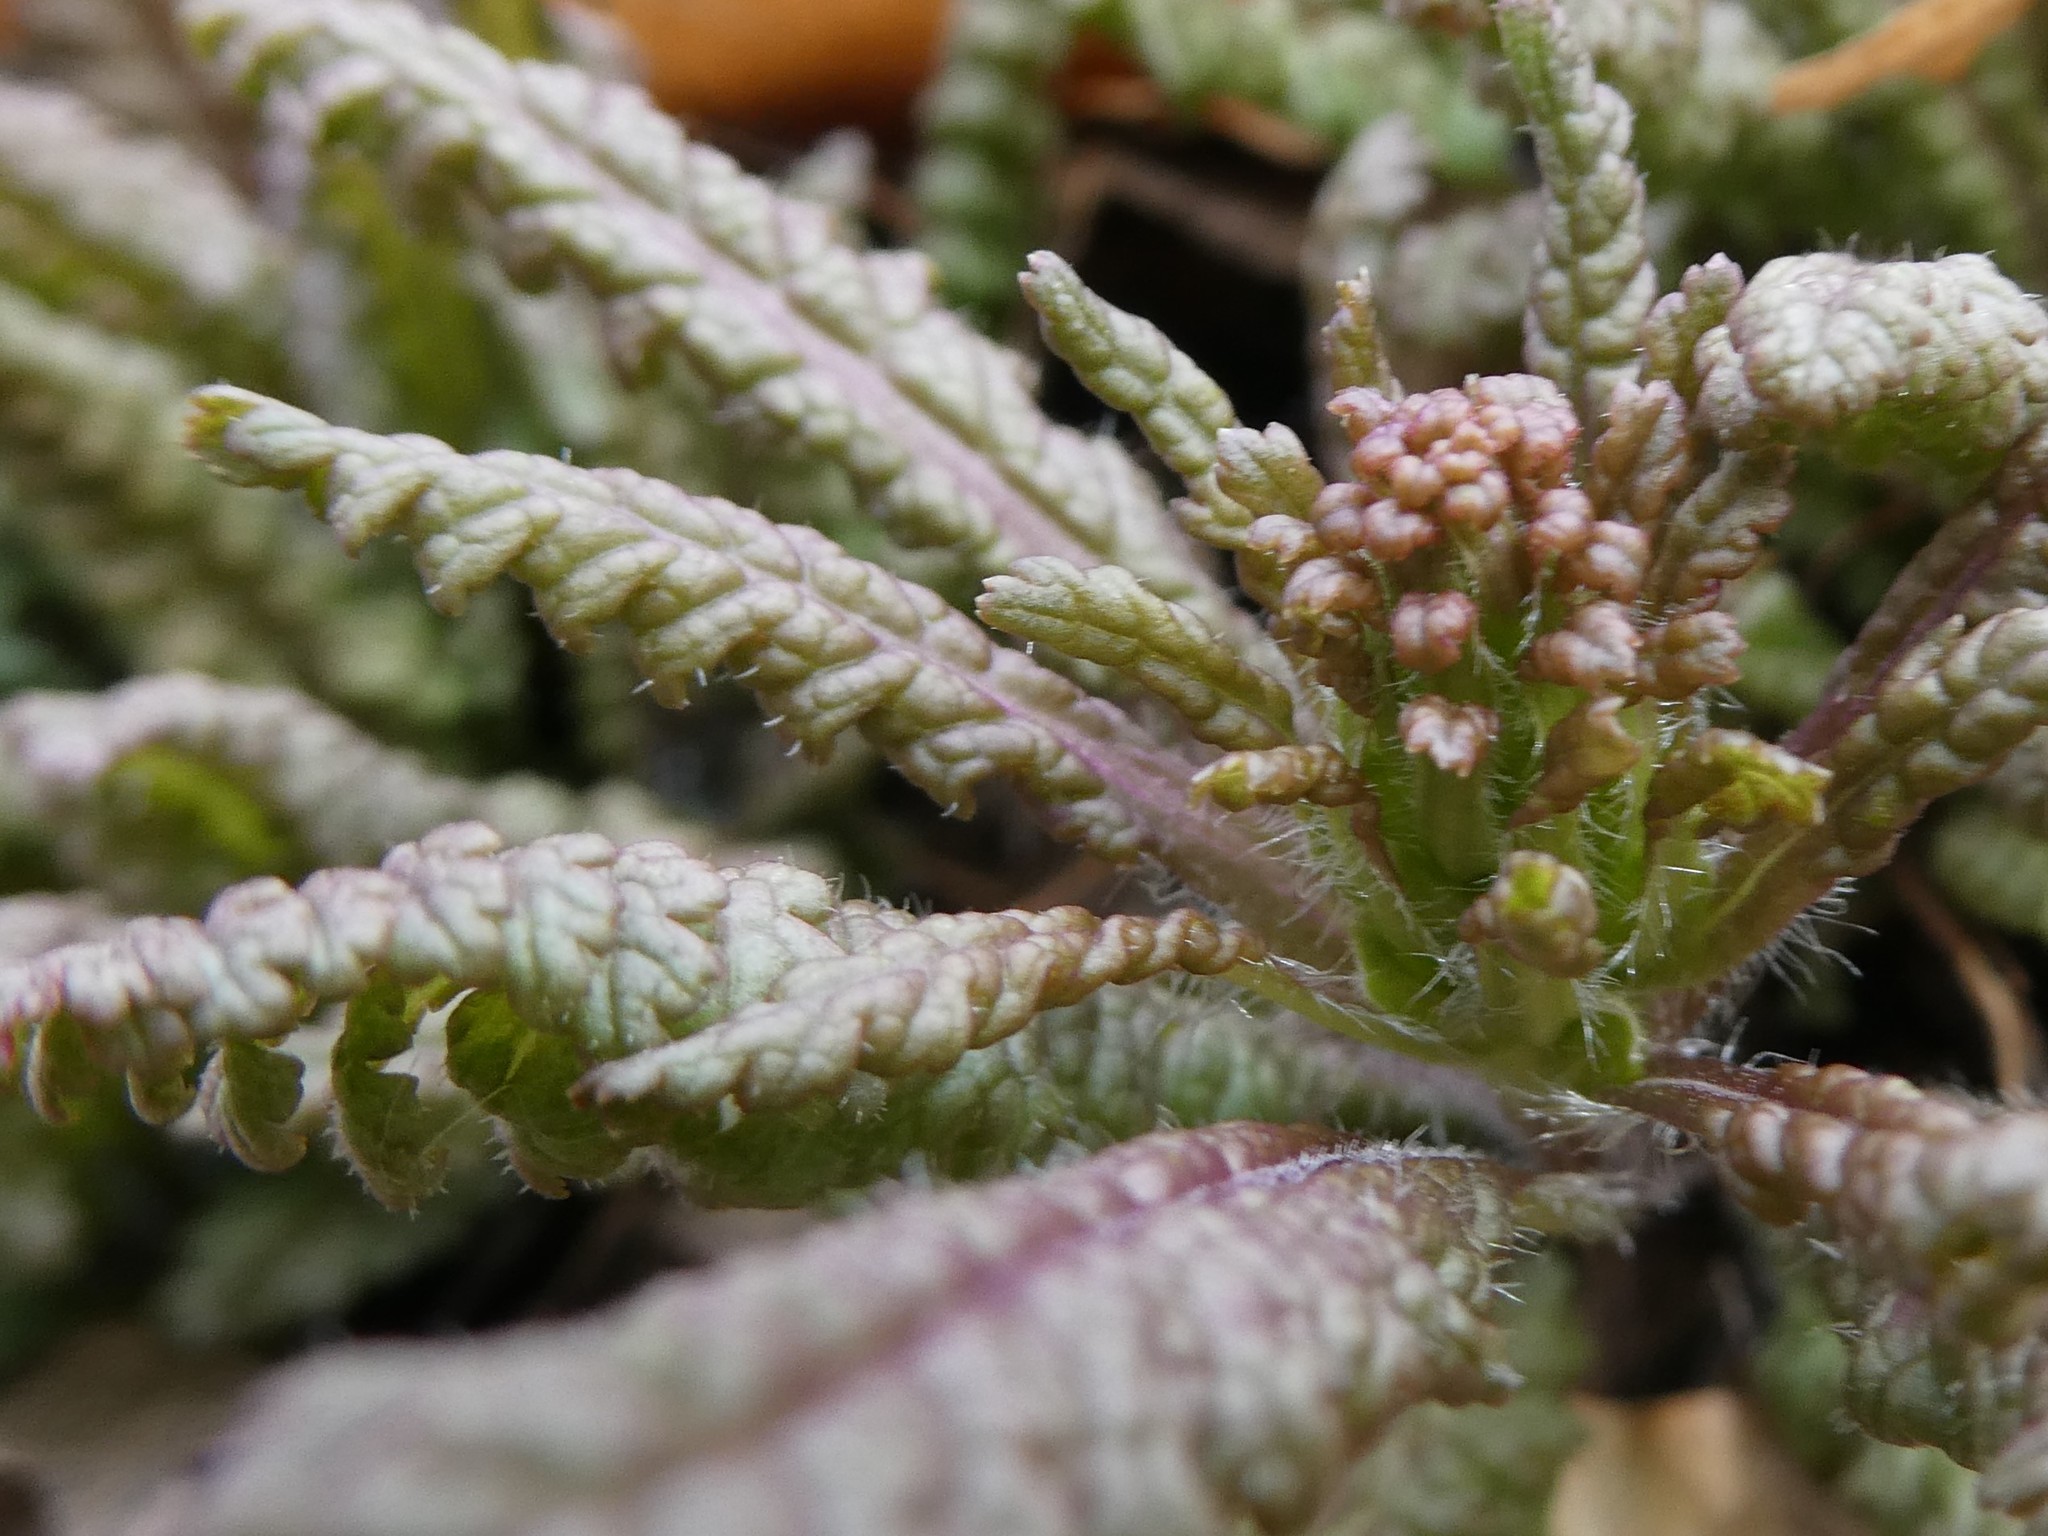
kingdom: Plantae
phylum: Tracheophyta
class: Magnoliopsida
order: Lamiales
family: Orobanchaceae
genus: Pedicularis
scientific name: Pedicularis canadensis
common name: Early lousewort
